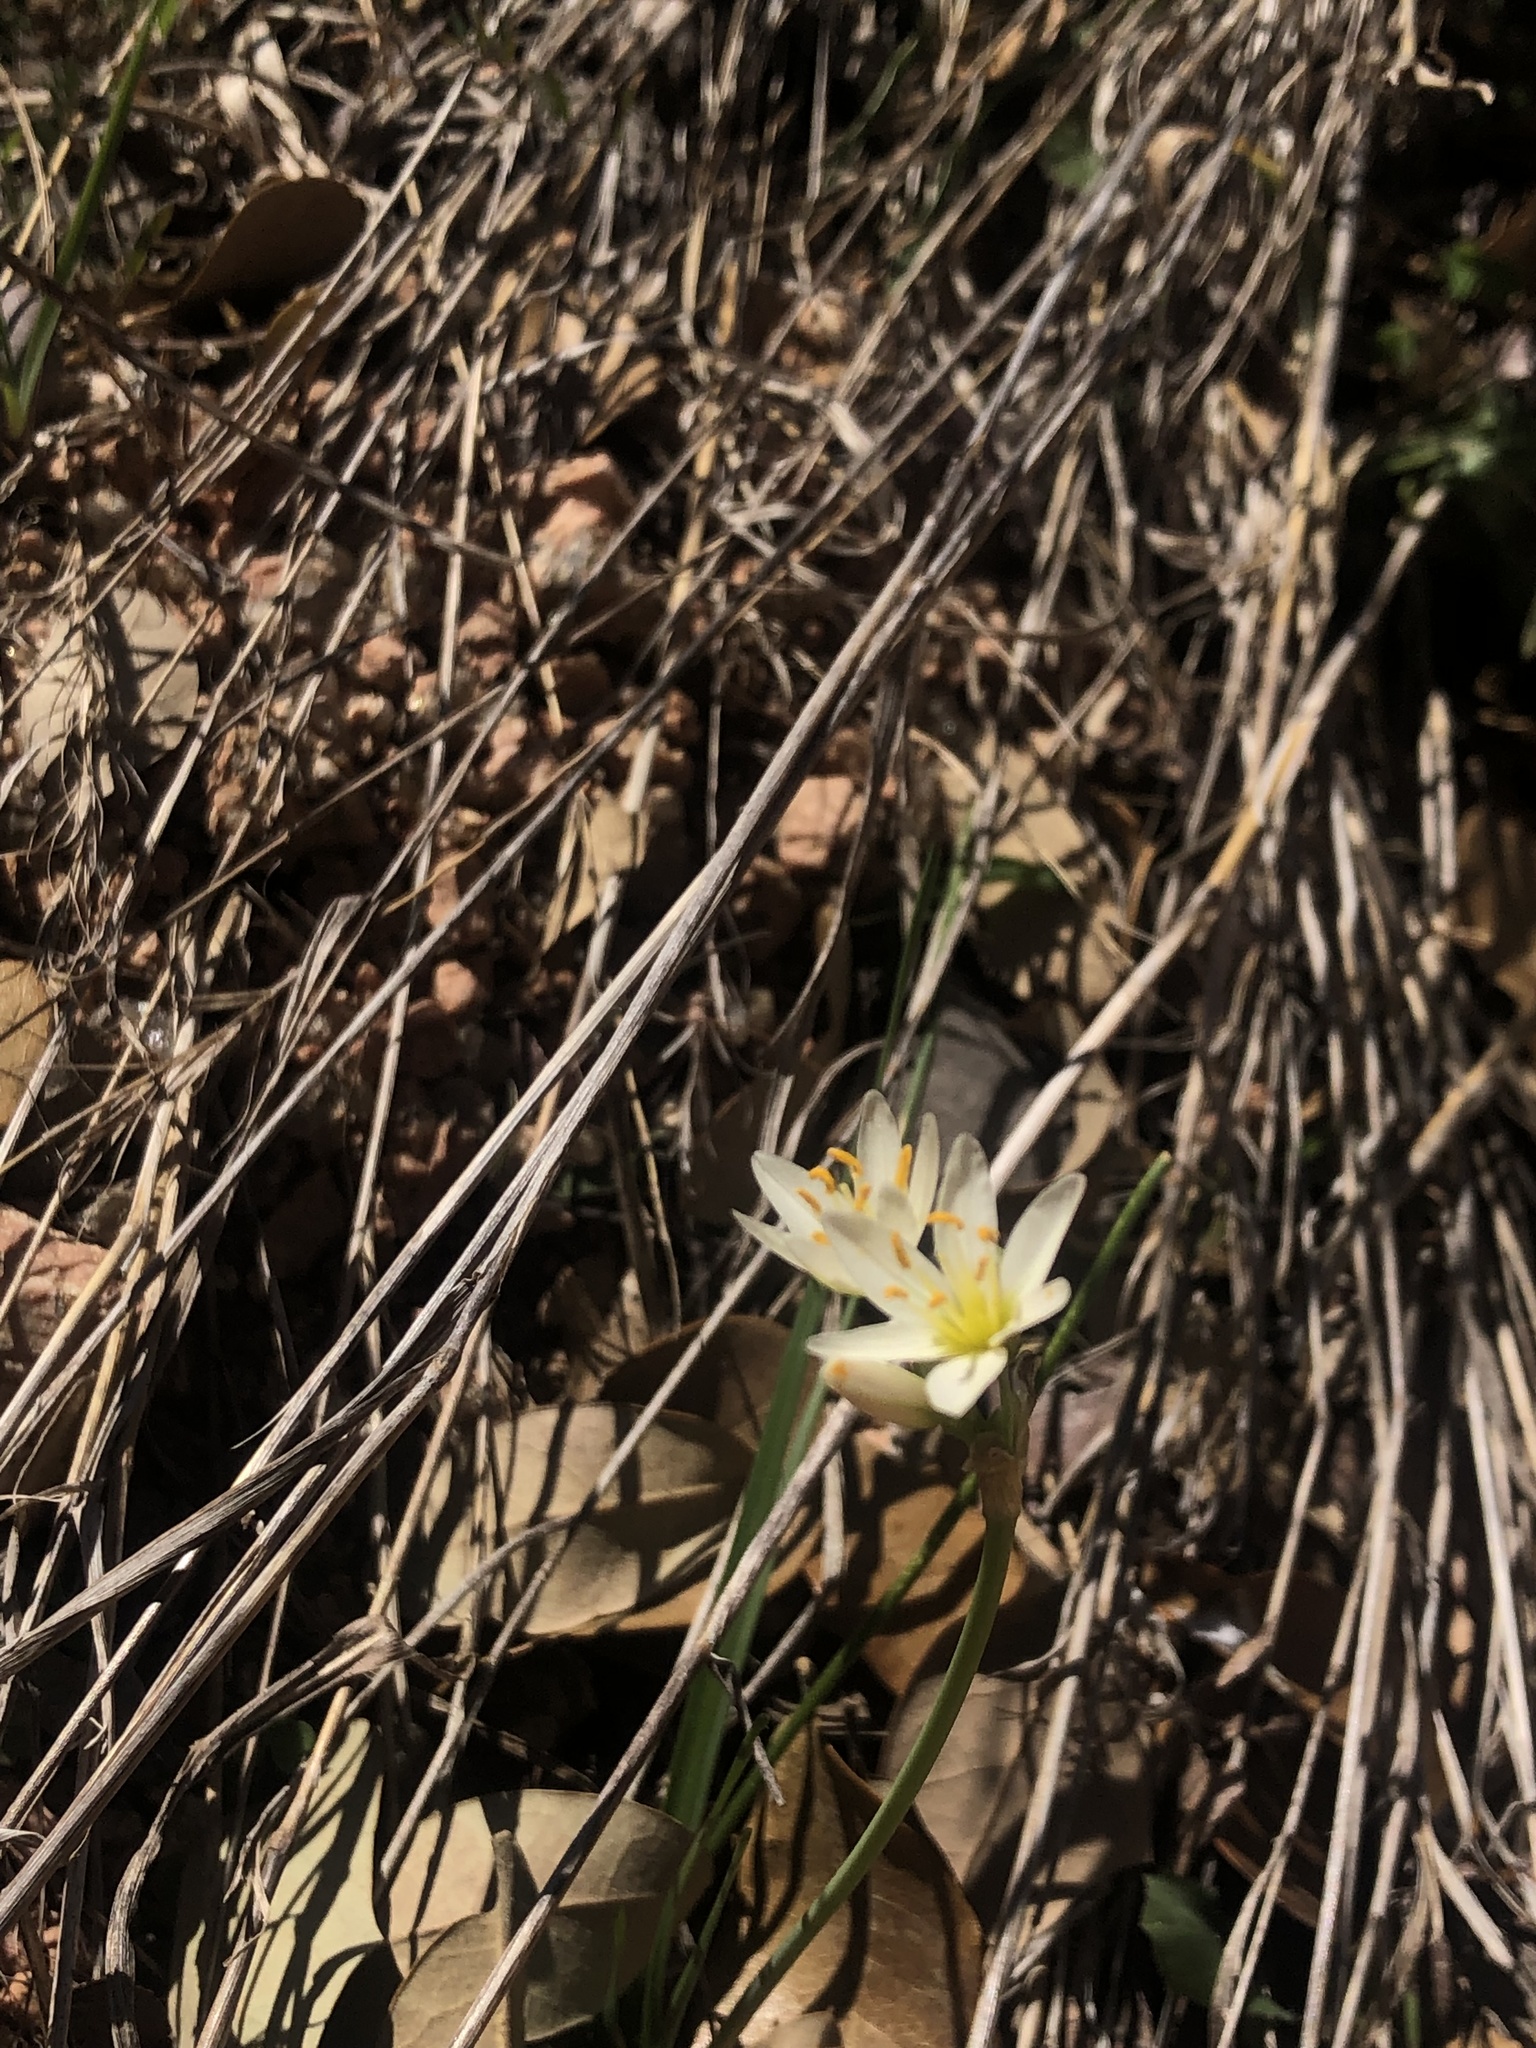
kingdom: Plantae
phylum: Tracheophyta
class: Liliopsida
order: Asparagales
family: Amaryllidaceae
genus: Nothoscordum
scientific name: Nothoscordum bivalve
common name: Crow-poison
